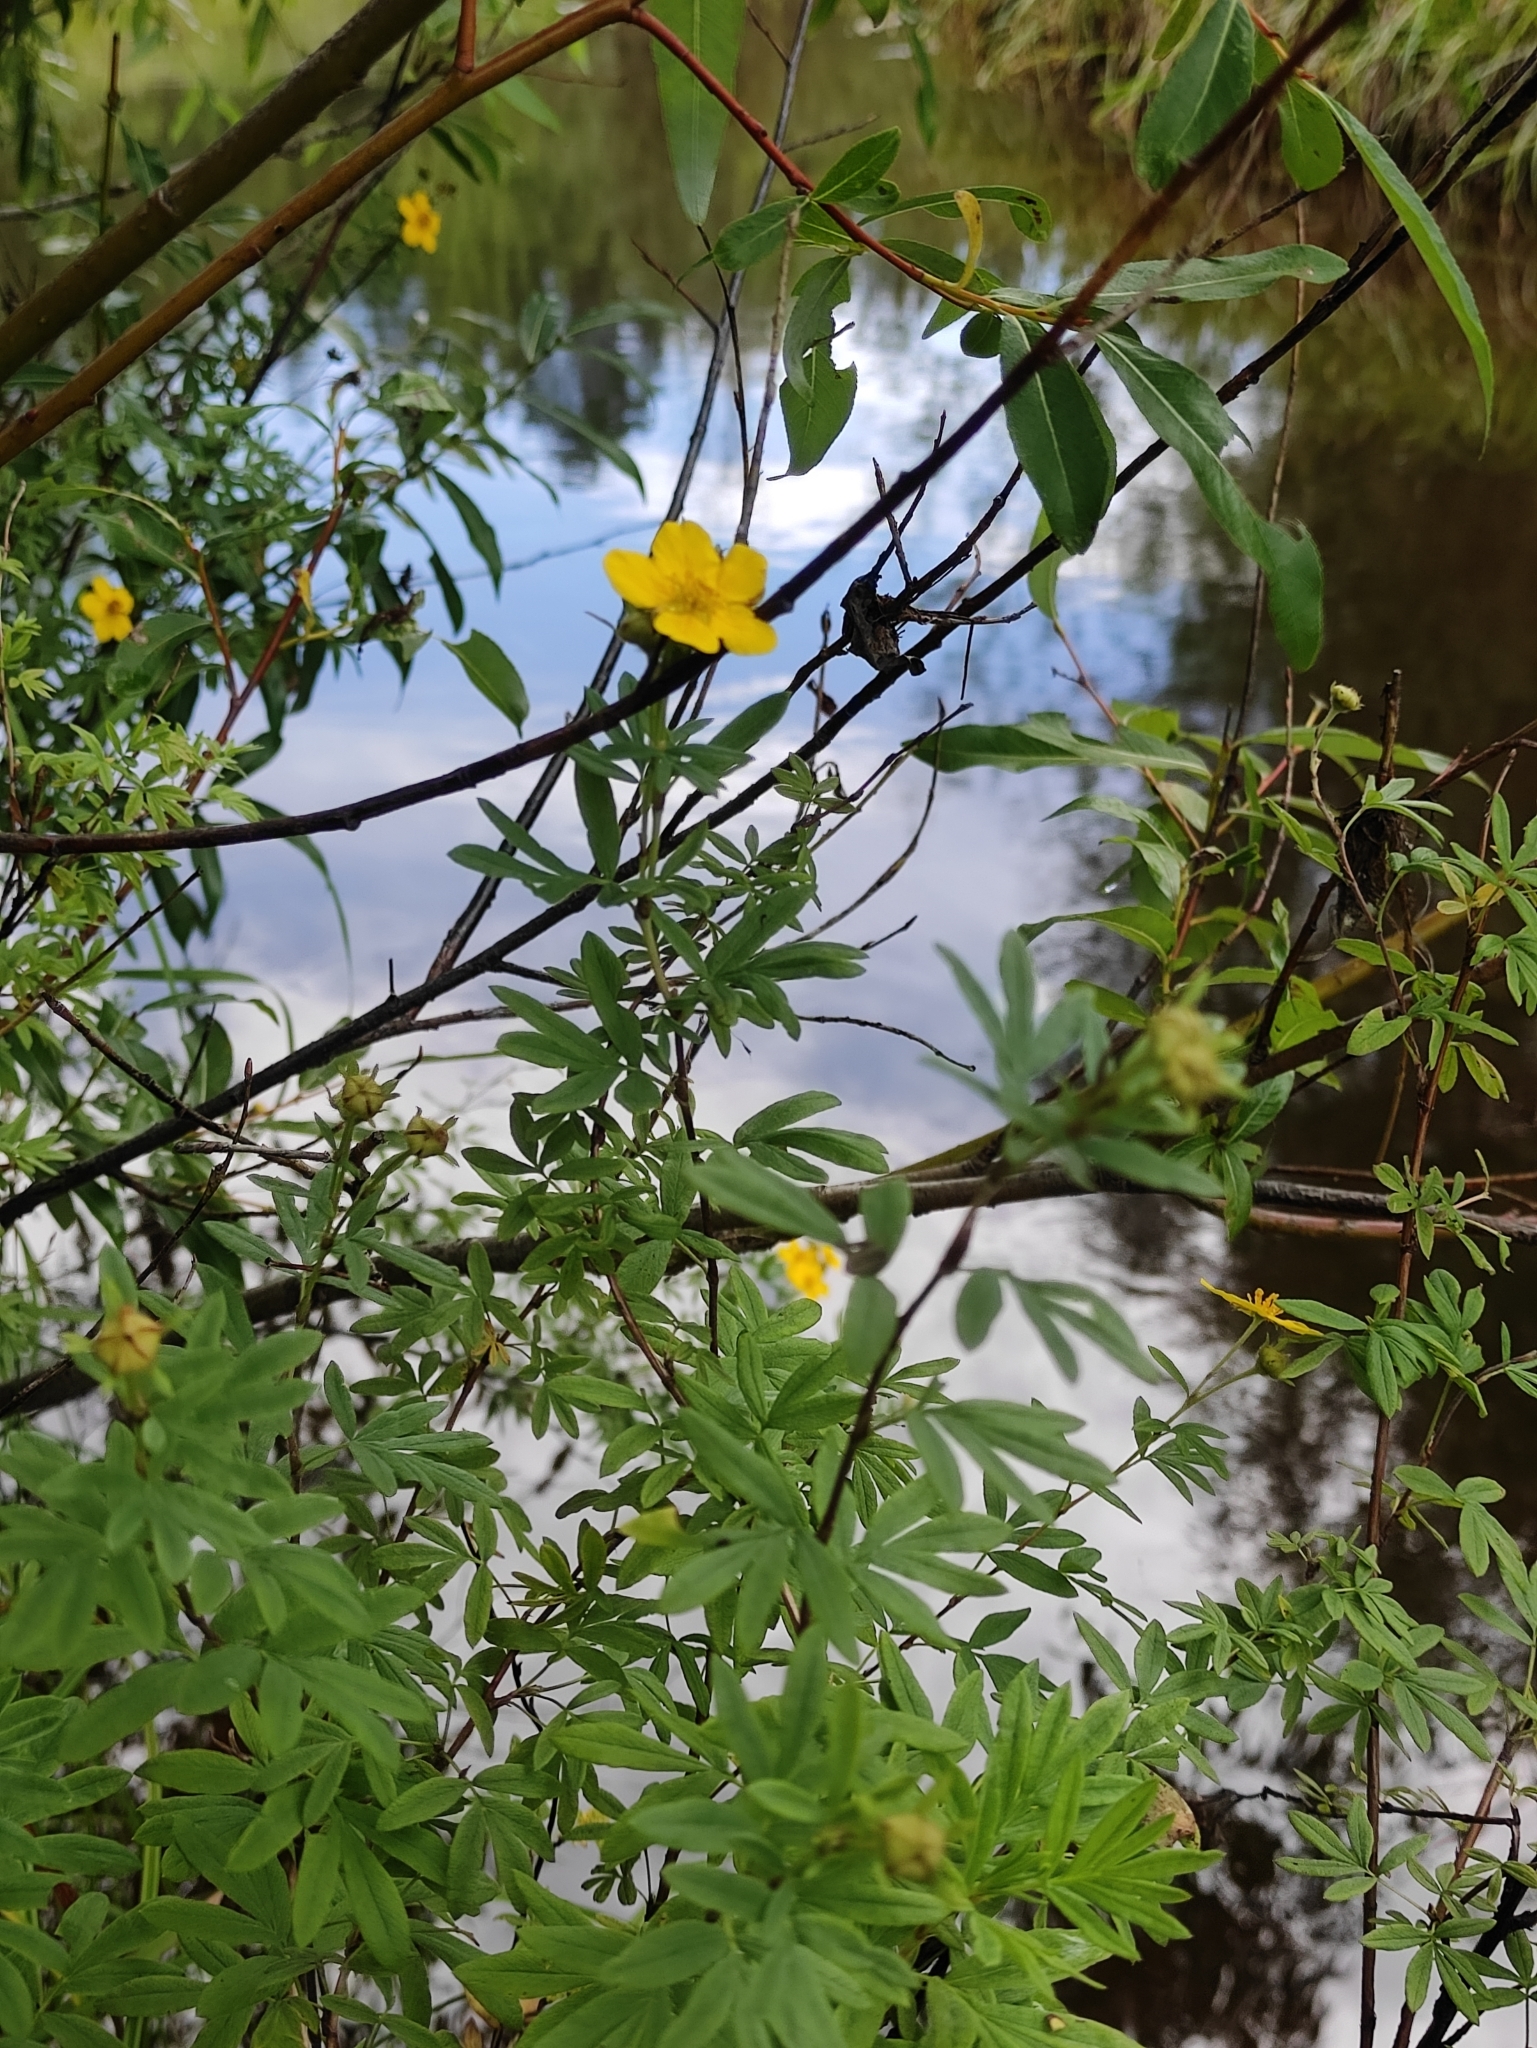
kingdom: Plantae
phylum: Tracheophyta
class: Magnoliopsida
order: Rosales
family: Rosaceae
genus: Dasiphora
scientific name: Dasiphora fruticosa
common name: Shrubby cinquefoil
